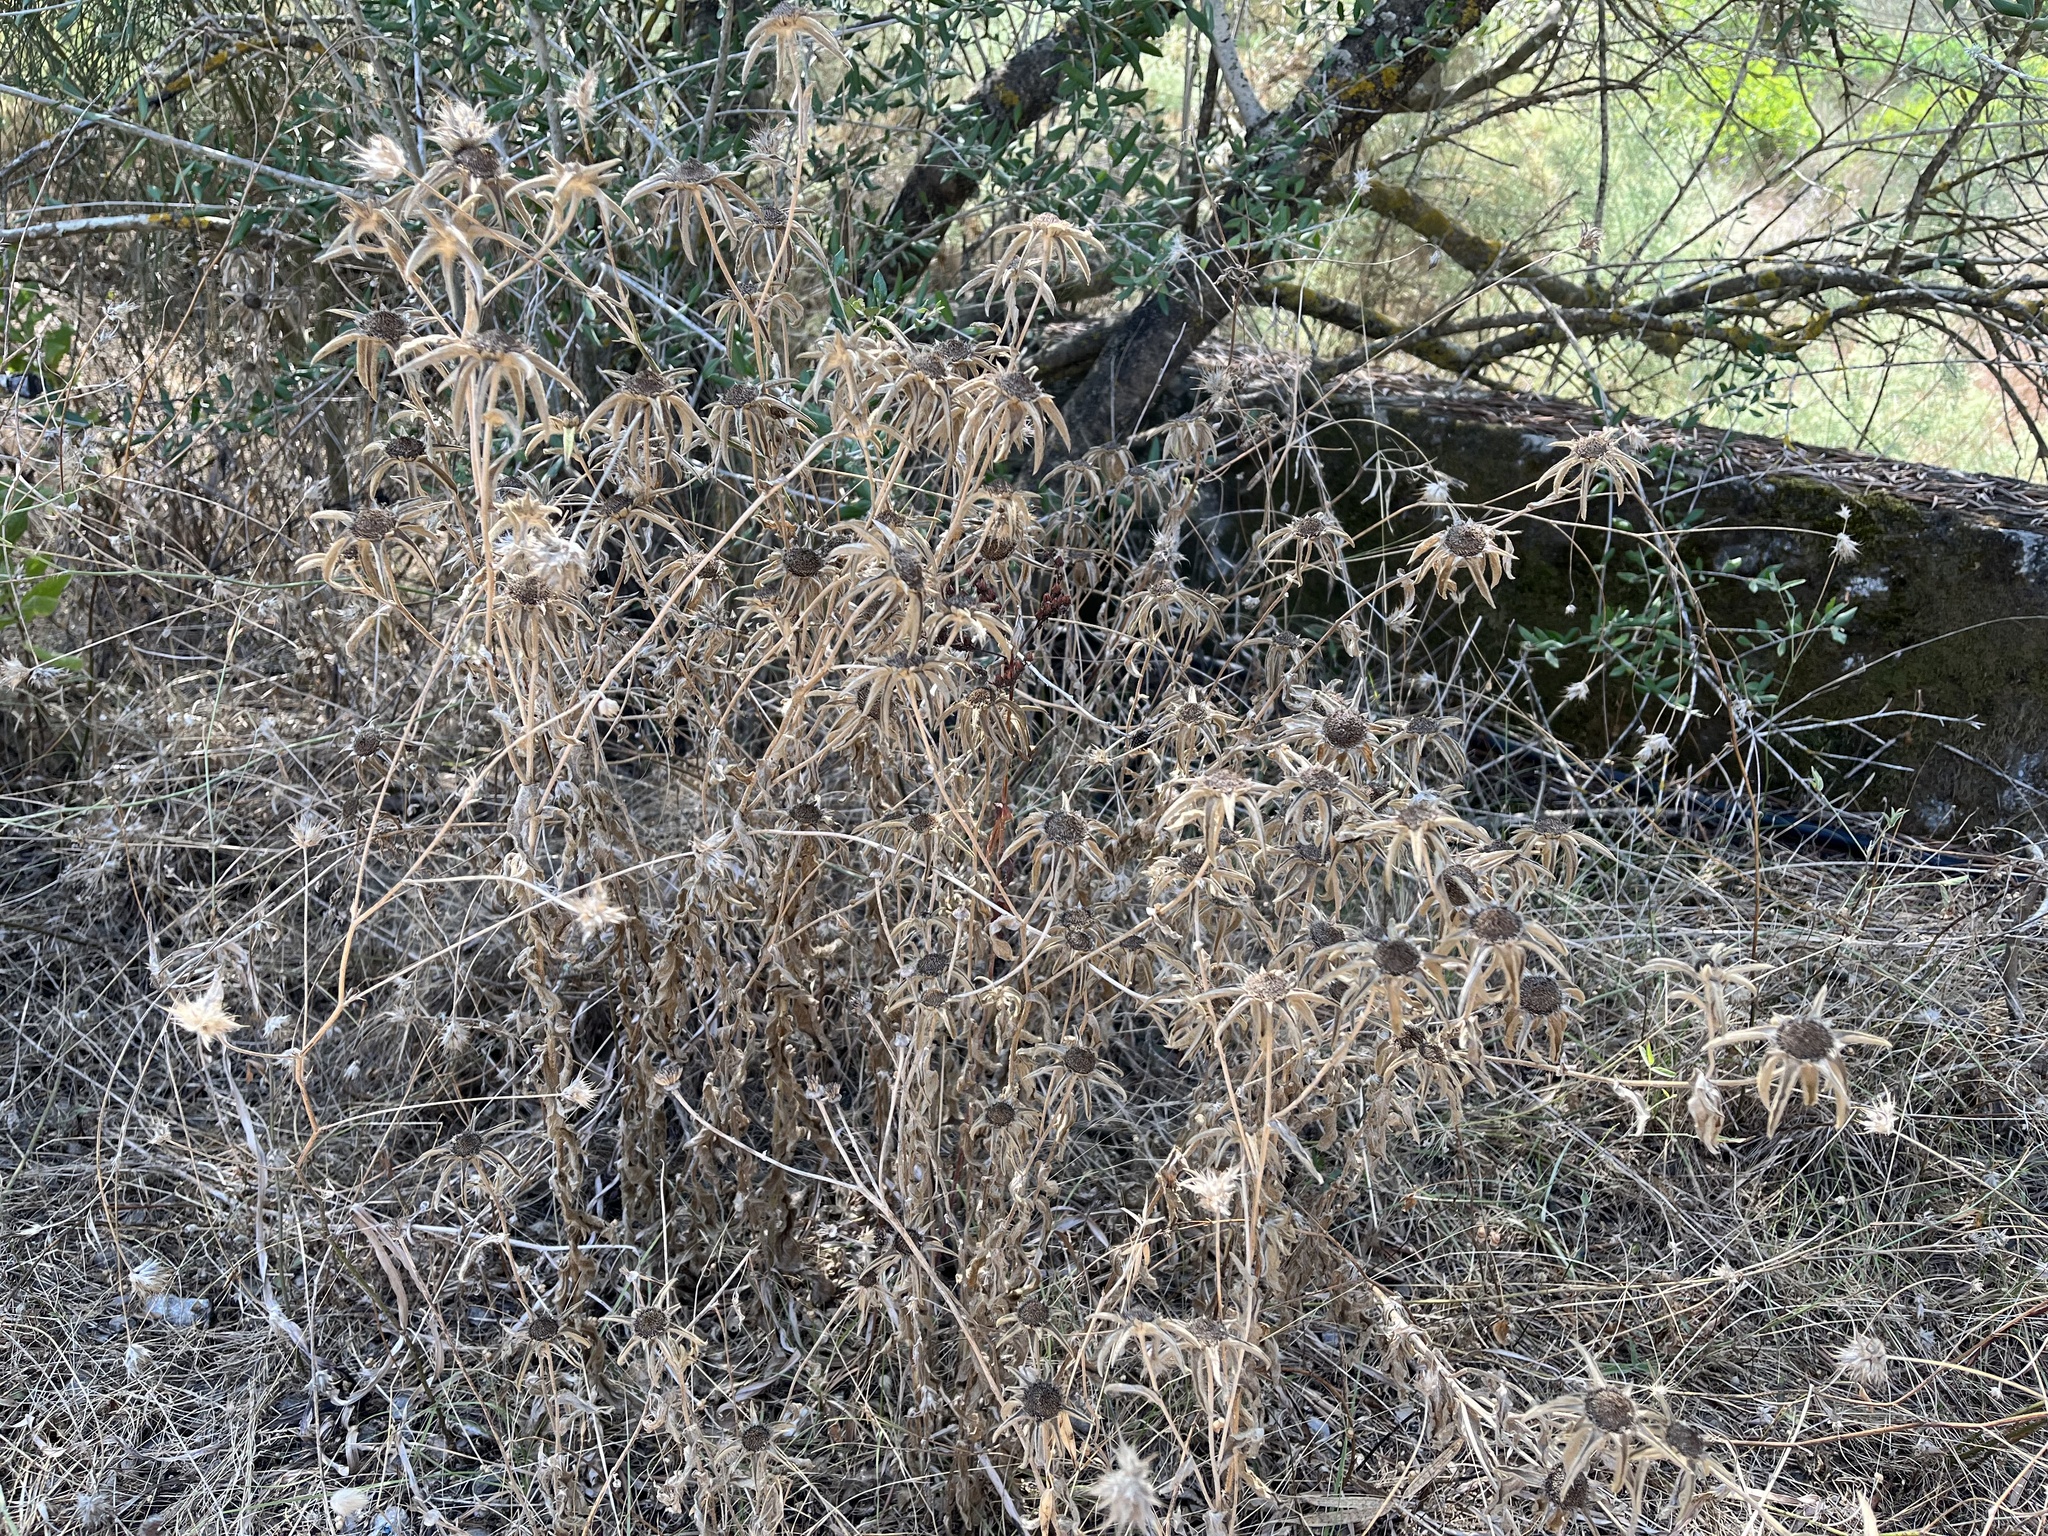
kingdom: Plantae
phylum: Tracheophyta
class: Magnoliopsida
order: Asterales
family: Asteraceae
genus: Pallenis
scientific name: Pallenis spinosa
